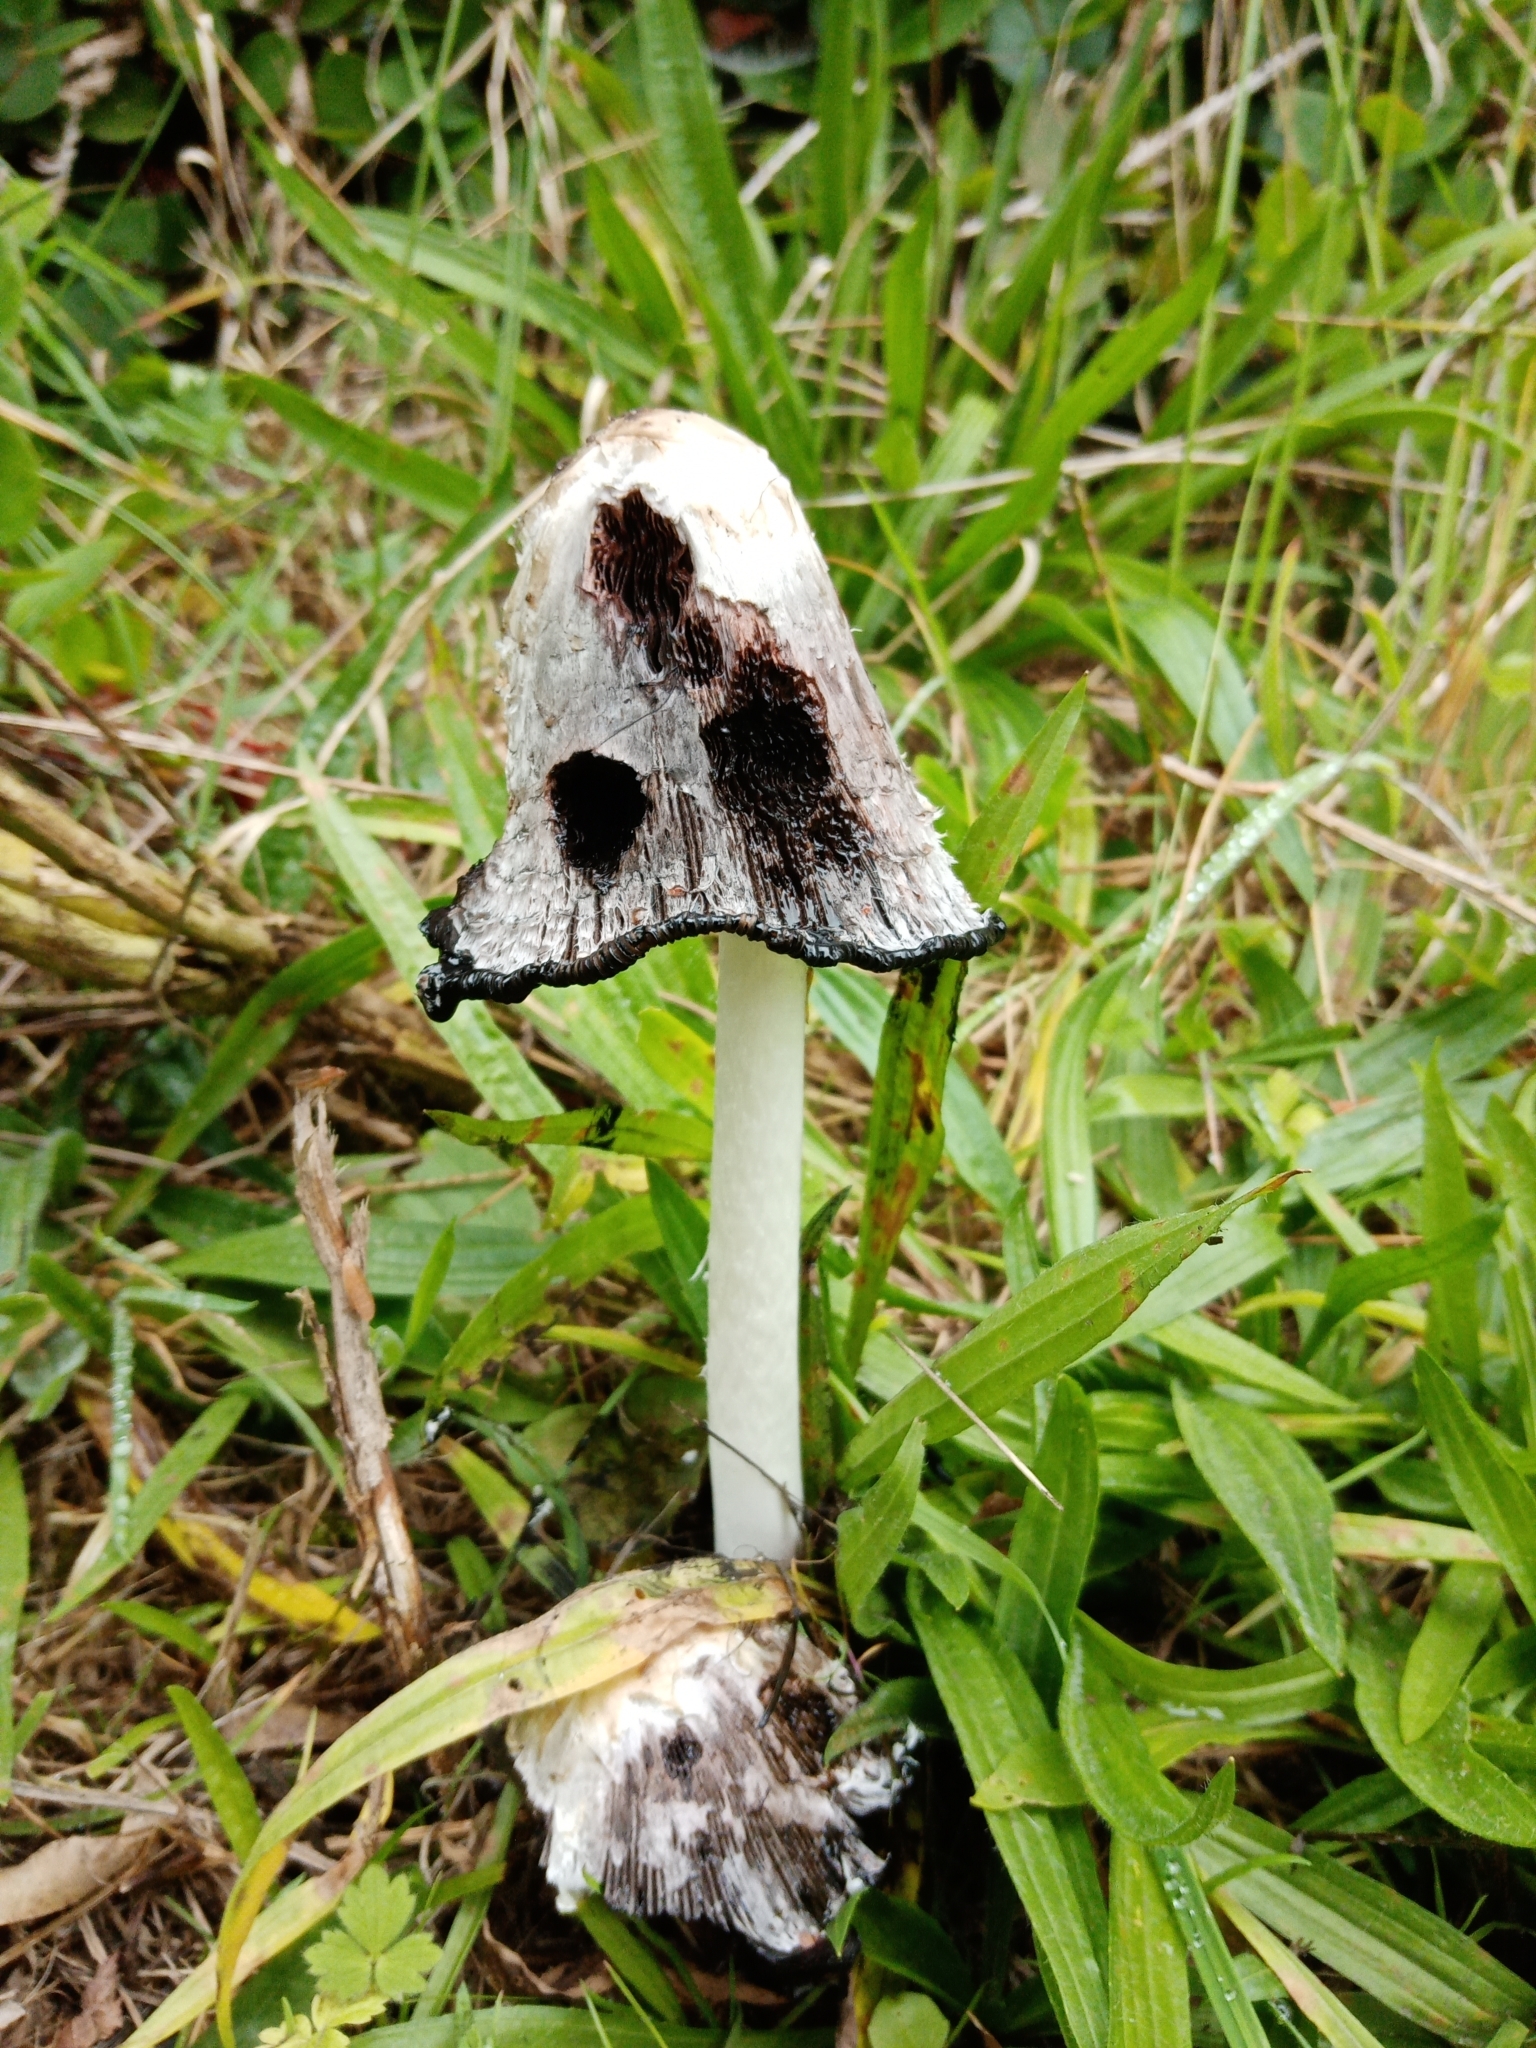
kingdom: Fungi
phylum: Basidiomycota
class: Agaricomycetes
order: Agaricales
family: Agaricaceae
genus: Coprinus
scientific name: Coprinus comatus
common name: Lawyer's wig
